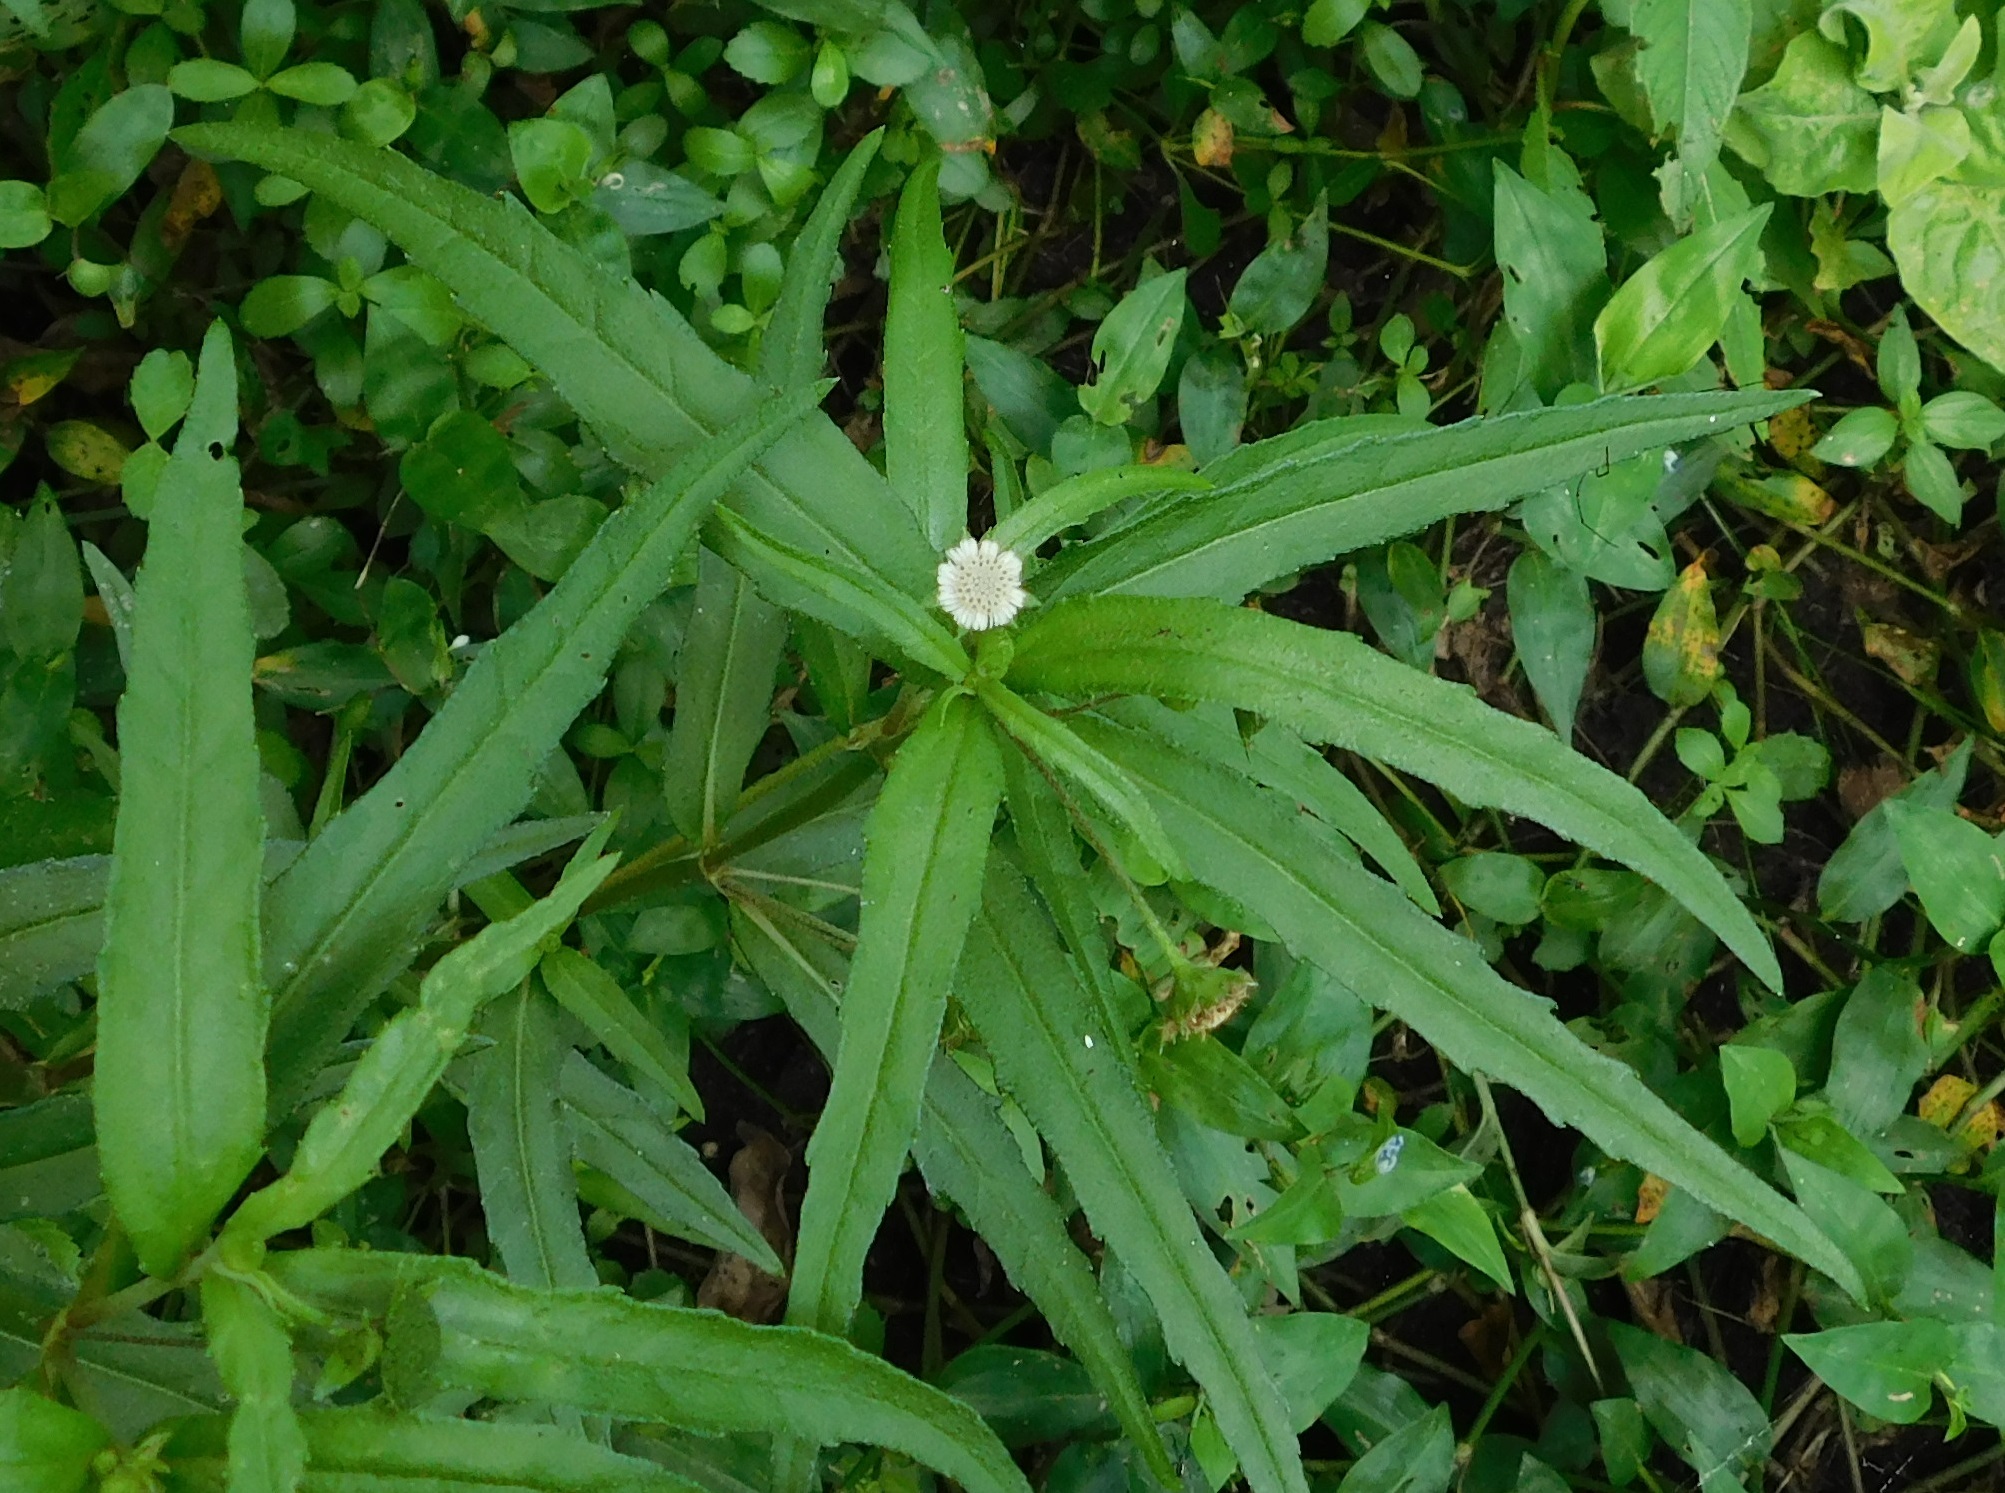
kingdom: Plantae
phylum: Tracheophyta
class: Magnoliopsida
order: Asterales
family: Asteraceae
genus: Eclipta
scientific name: Eclipta prostrata
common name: False daisy
